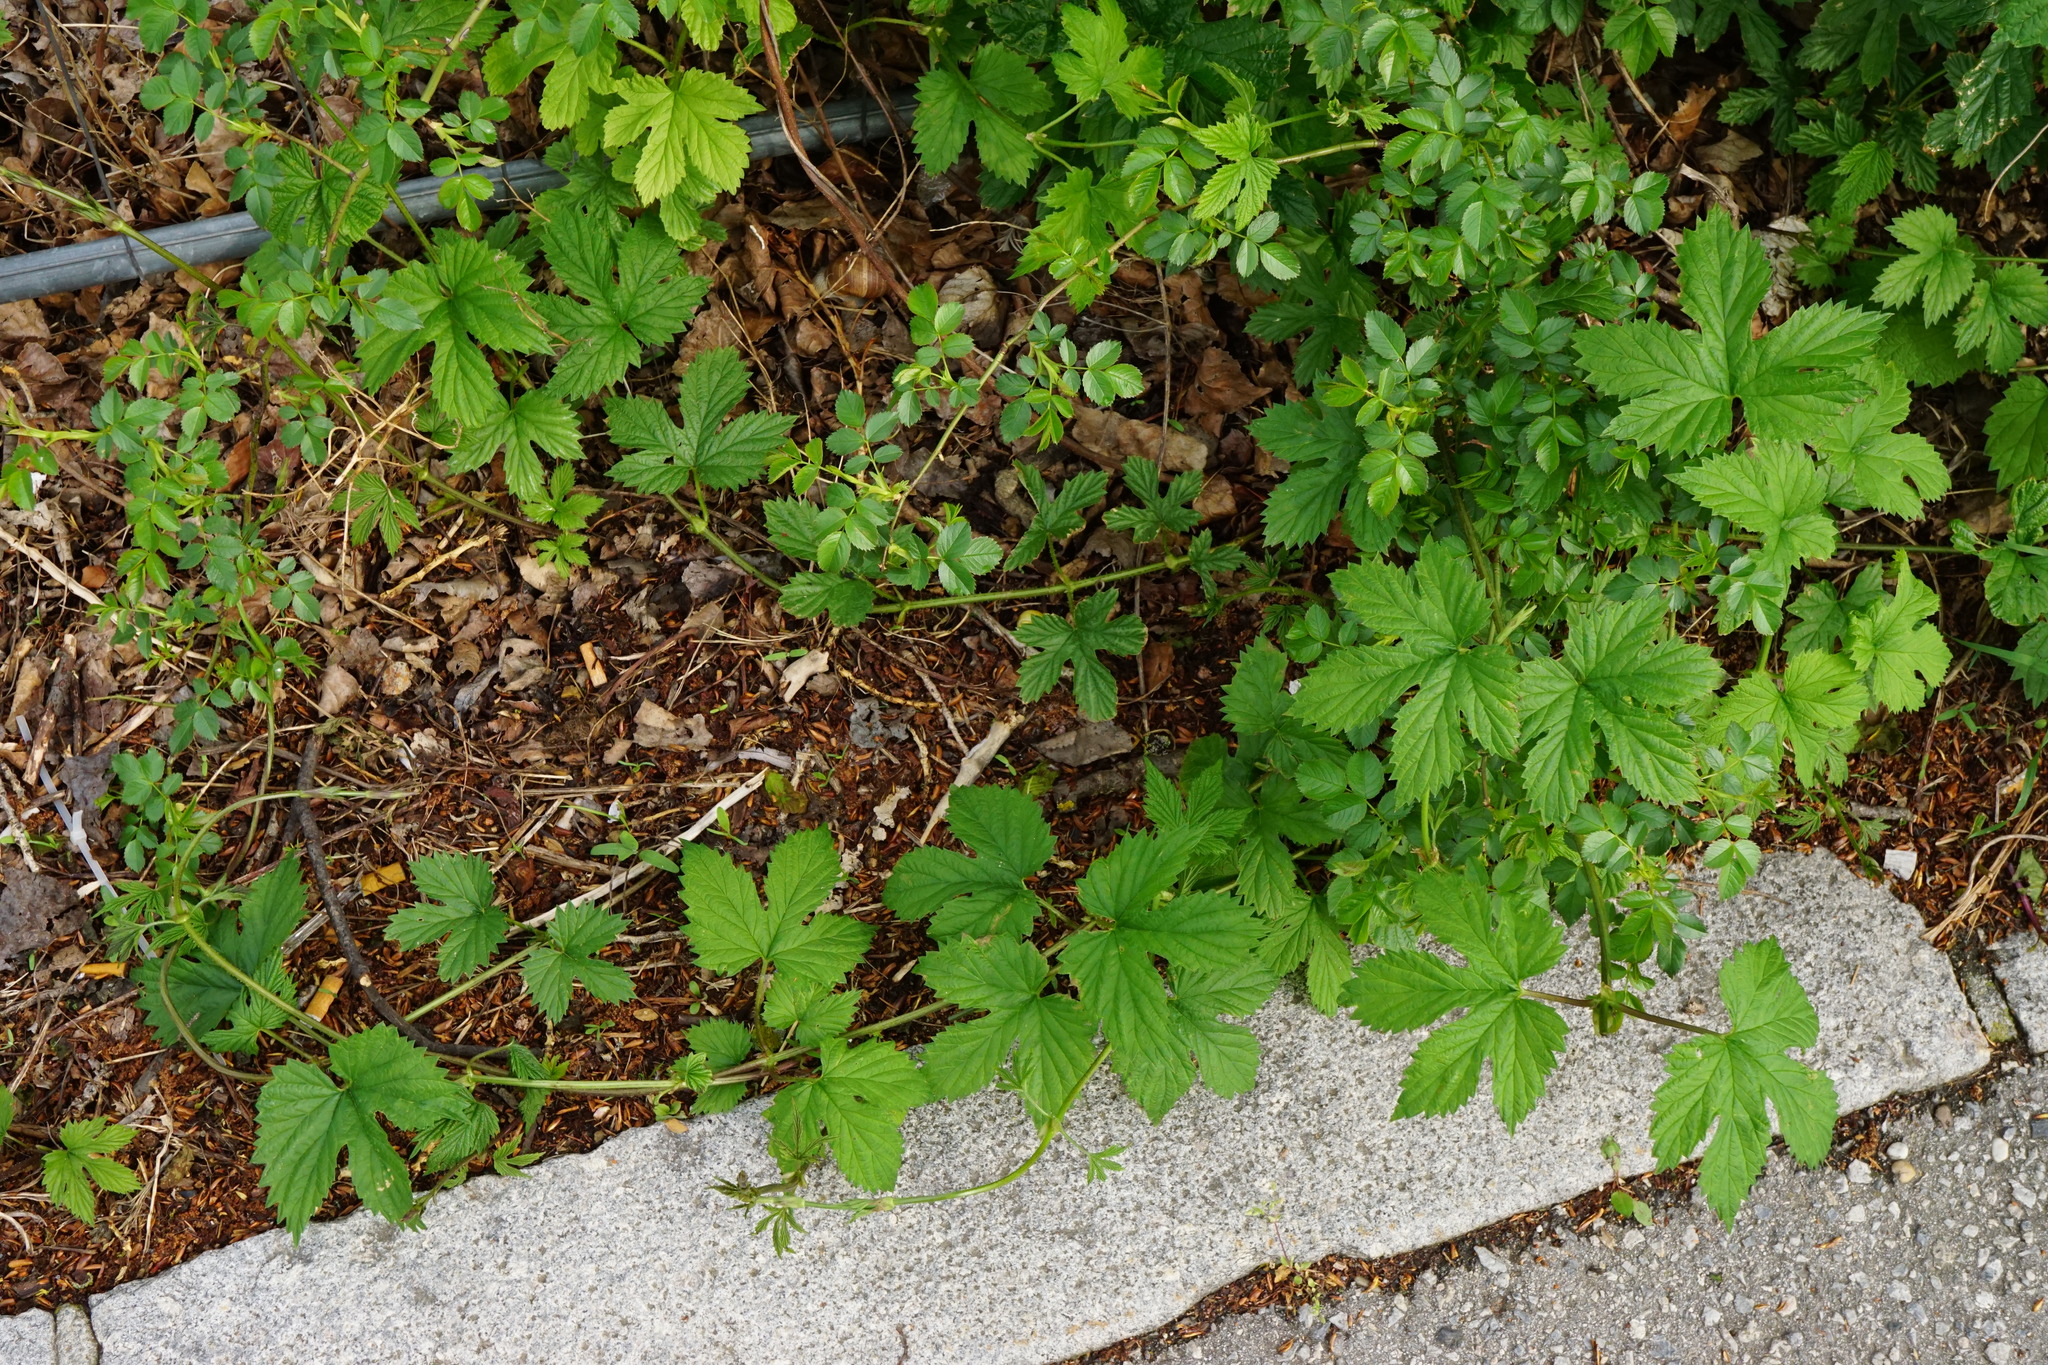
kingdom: Plantae
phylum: Tracheophyta
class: Magnoliopsida
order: Rosales
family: Cannabaceae
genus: Humulus
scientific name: Humulus lupulus
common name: Hop
